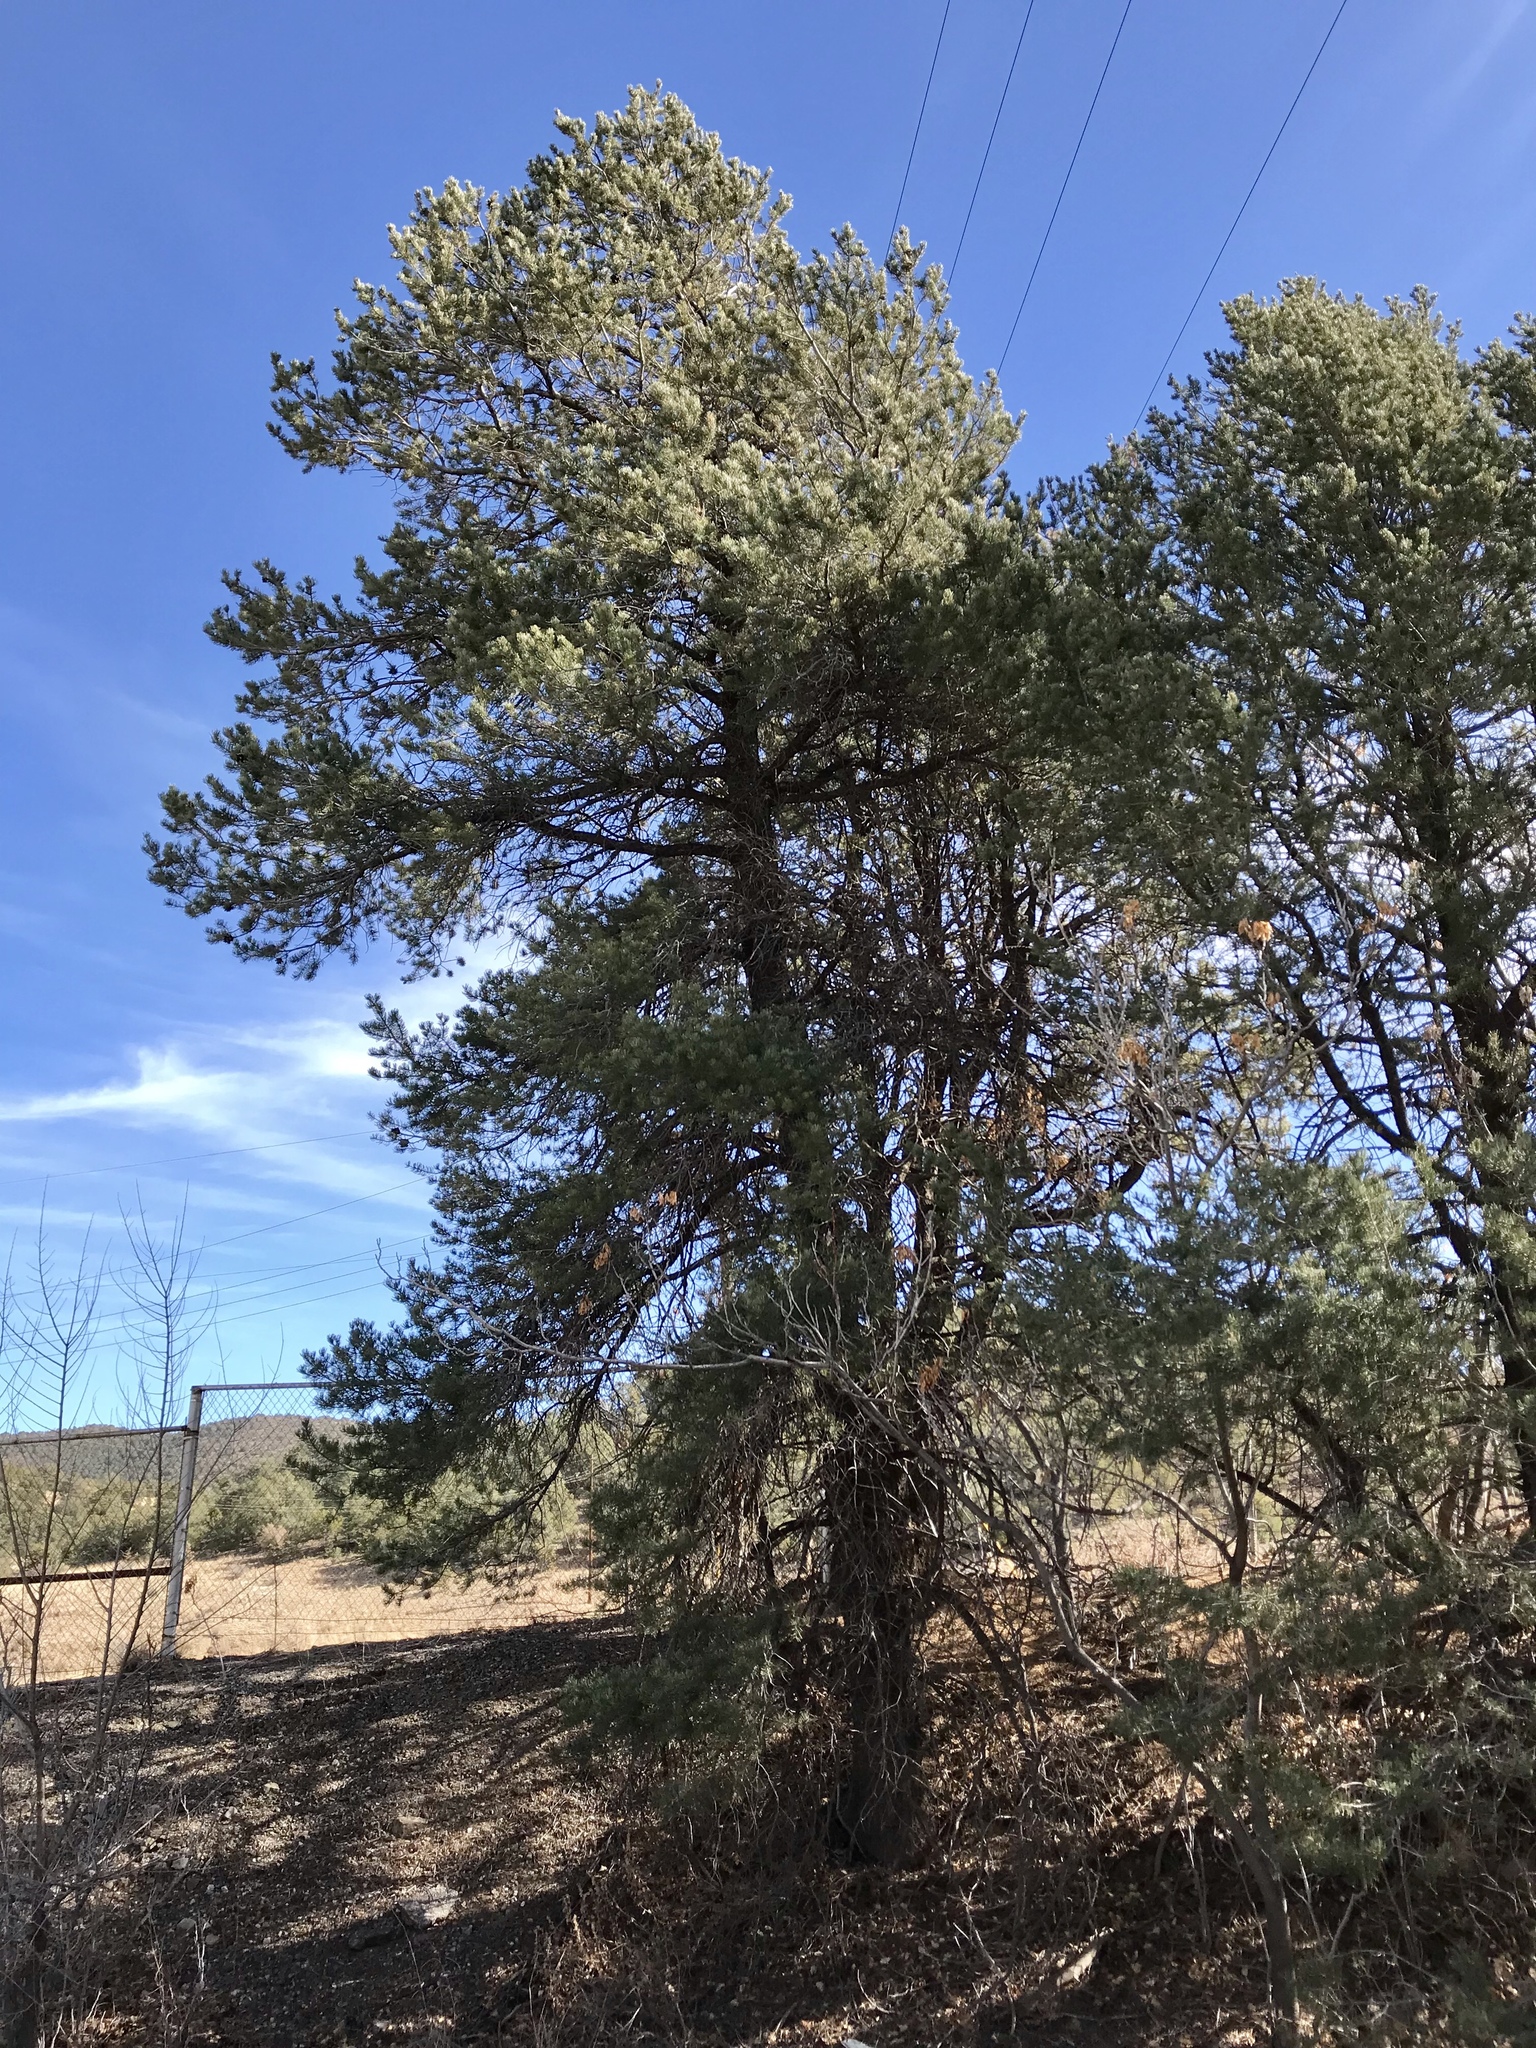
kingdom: Plantae
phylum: Tracheophyta
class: Pinopsida
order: Pinales
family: Pinaceae
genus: Pinus
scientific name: Pinus edulis
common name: Colorado pinyon
